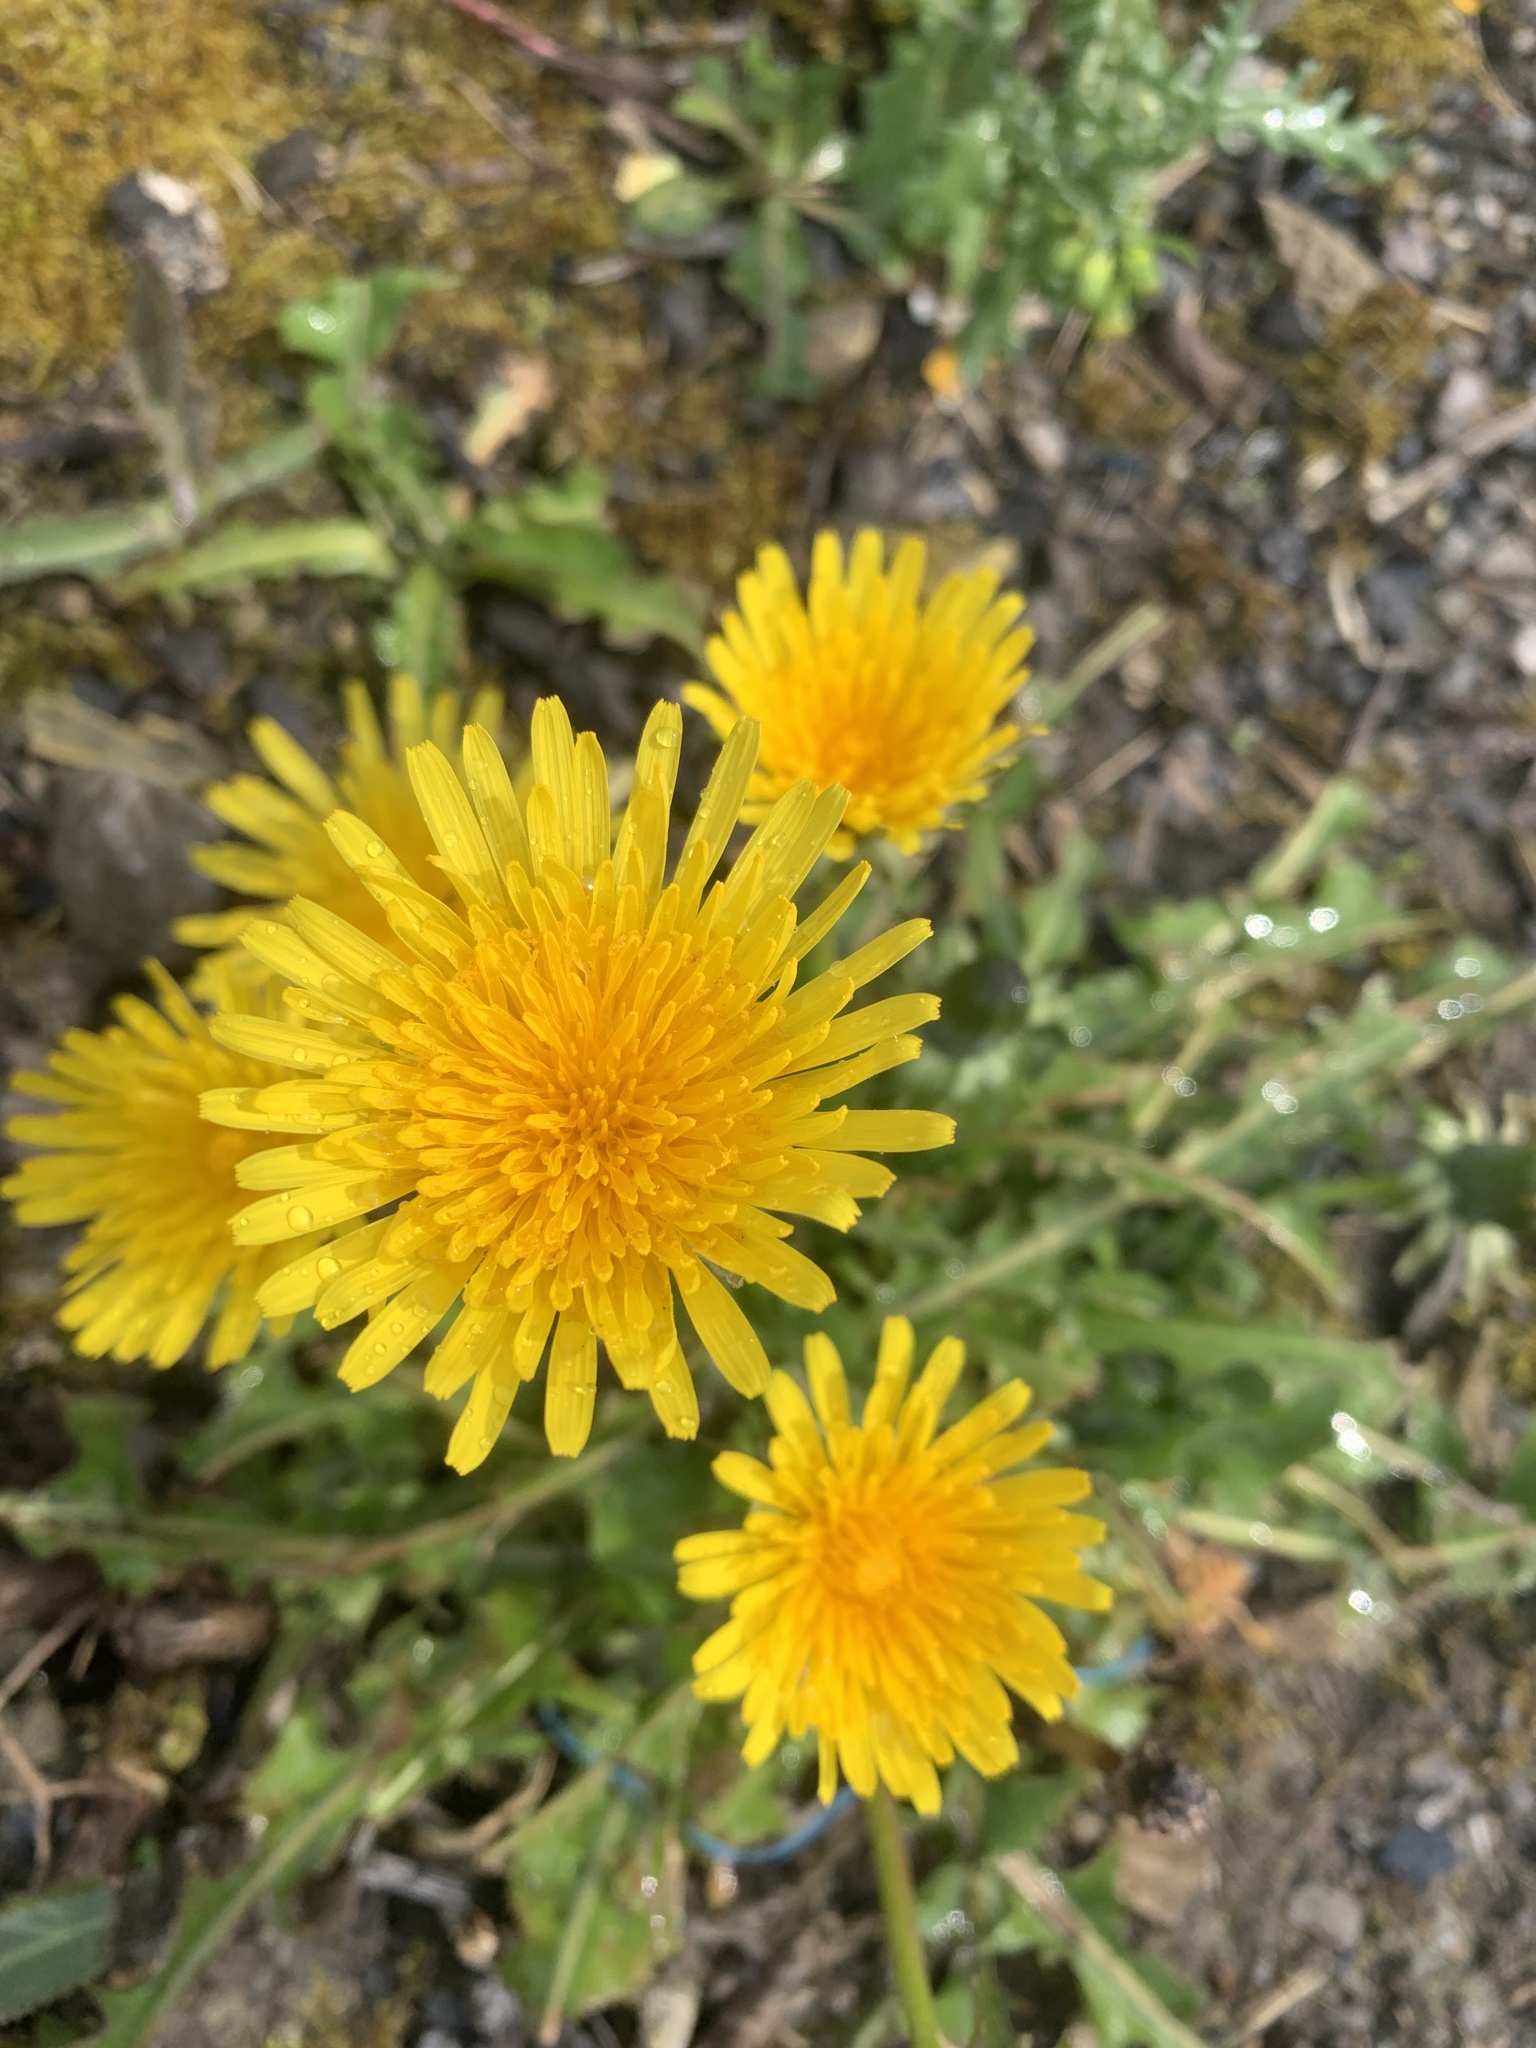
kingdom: Plantae
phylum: Tracheophyta
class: Magnoliopsida
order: Asterales
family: Asteraceae
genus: Taraxacum
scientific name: Taraxacum officinale
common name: Common dandelion
